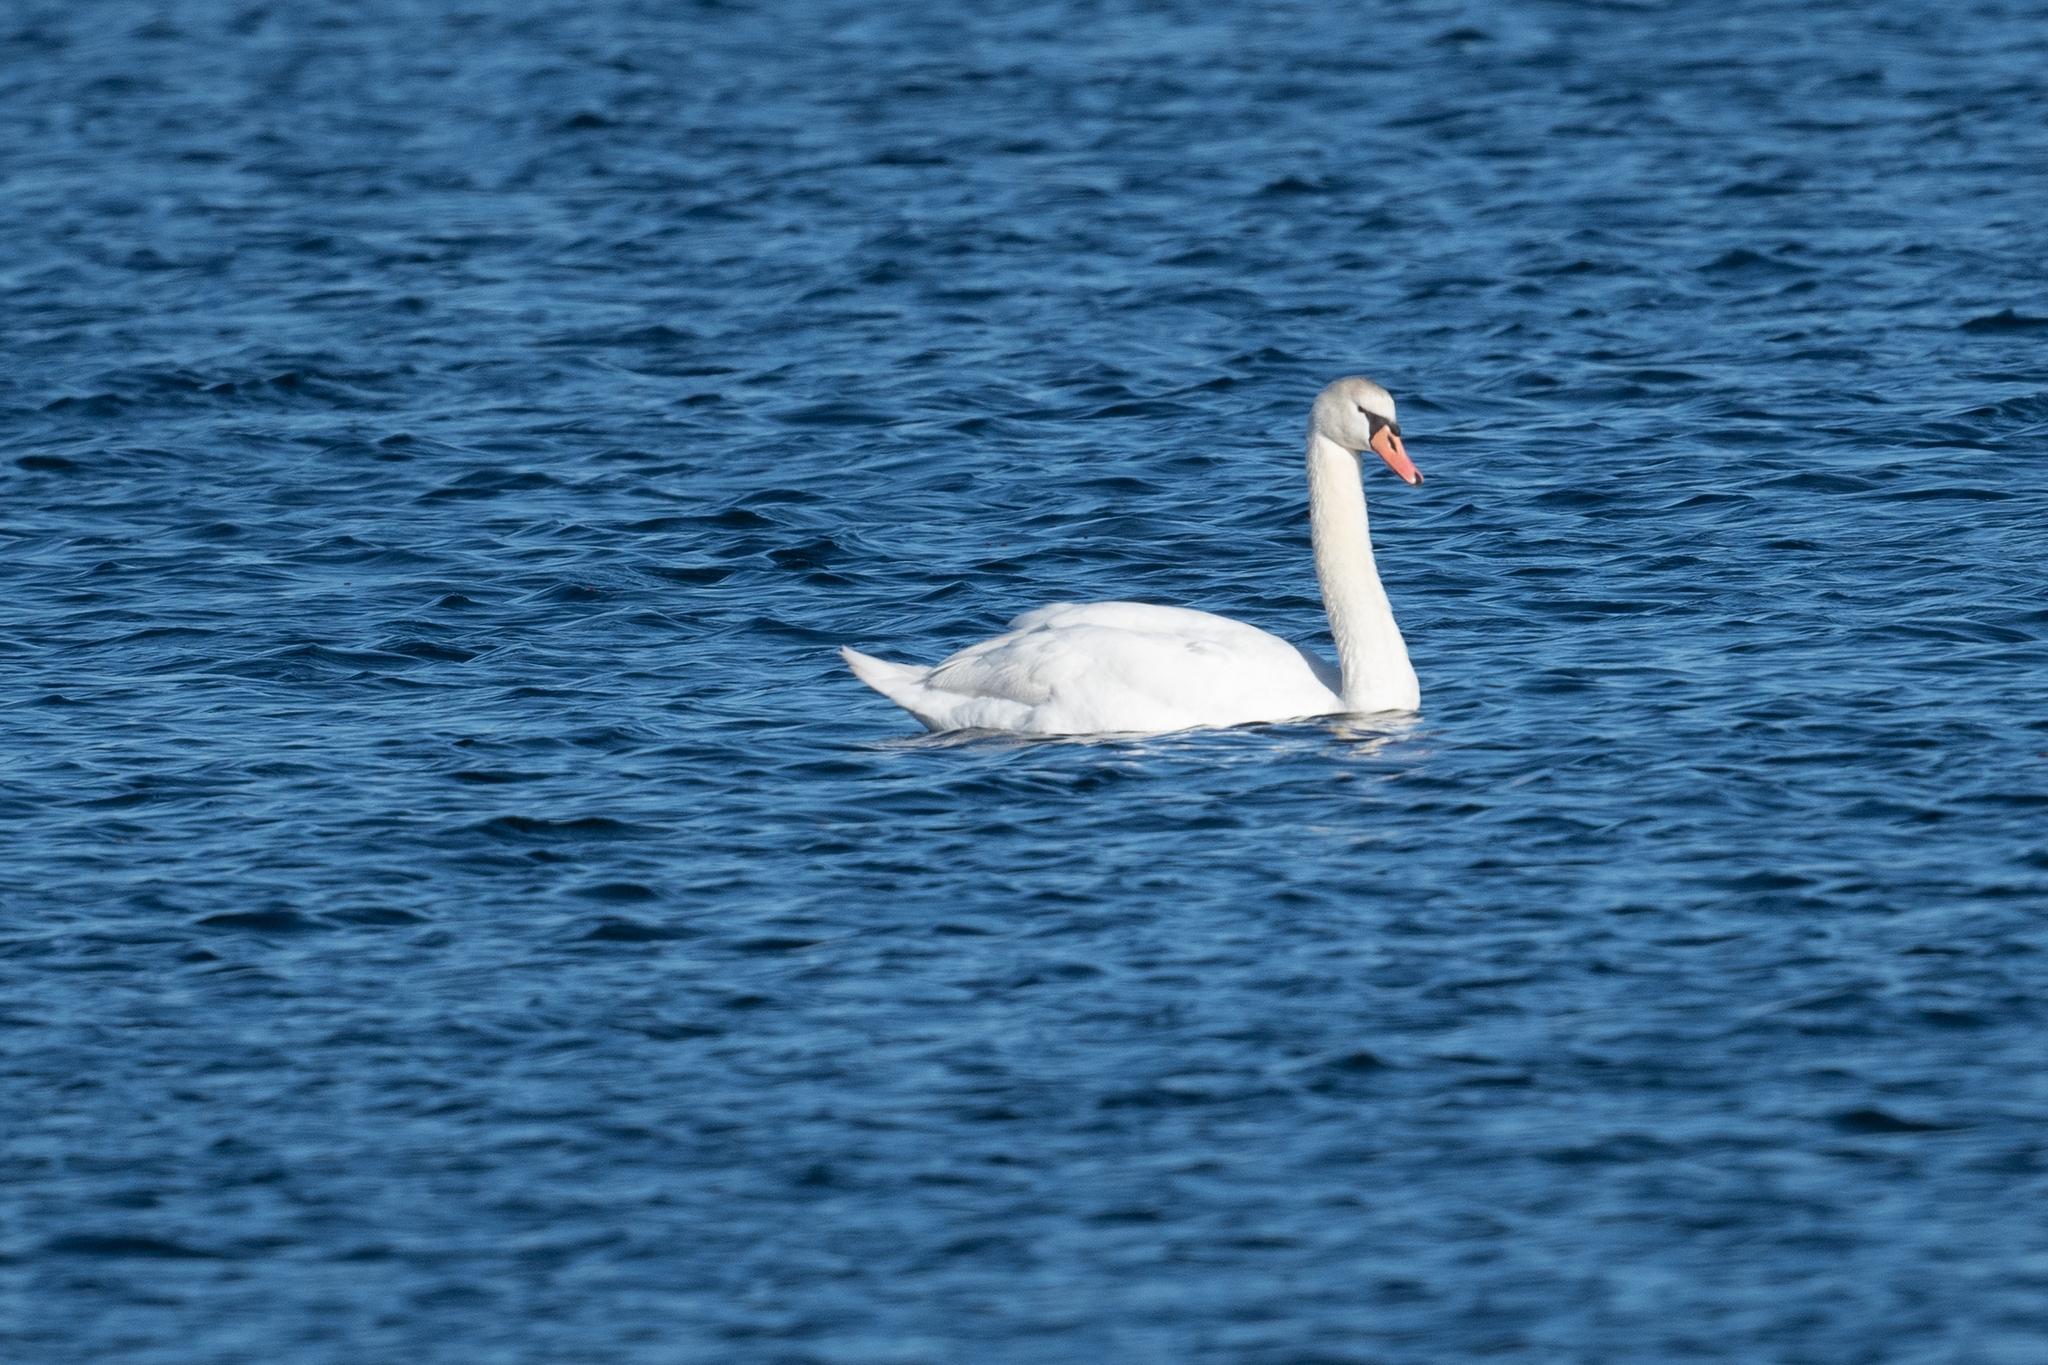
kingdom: Animalia
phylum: Chordata
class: Aves
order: Anseriformes
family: Anatidae
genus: Cygnus
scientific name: Cygnus olor
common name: Mute swan
